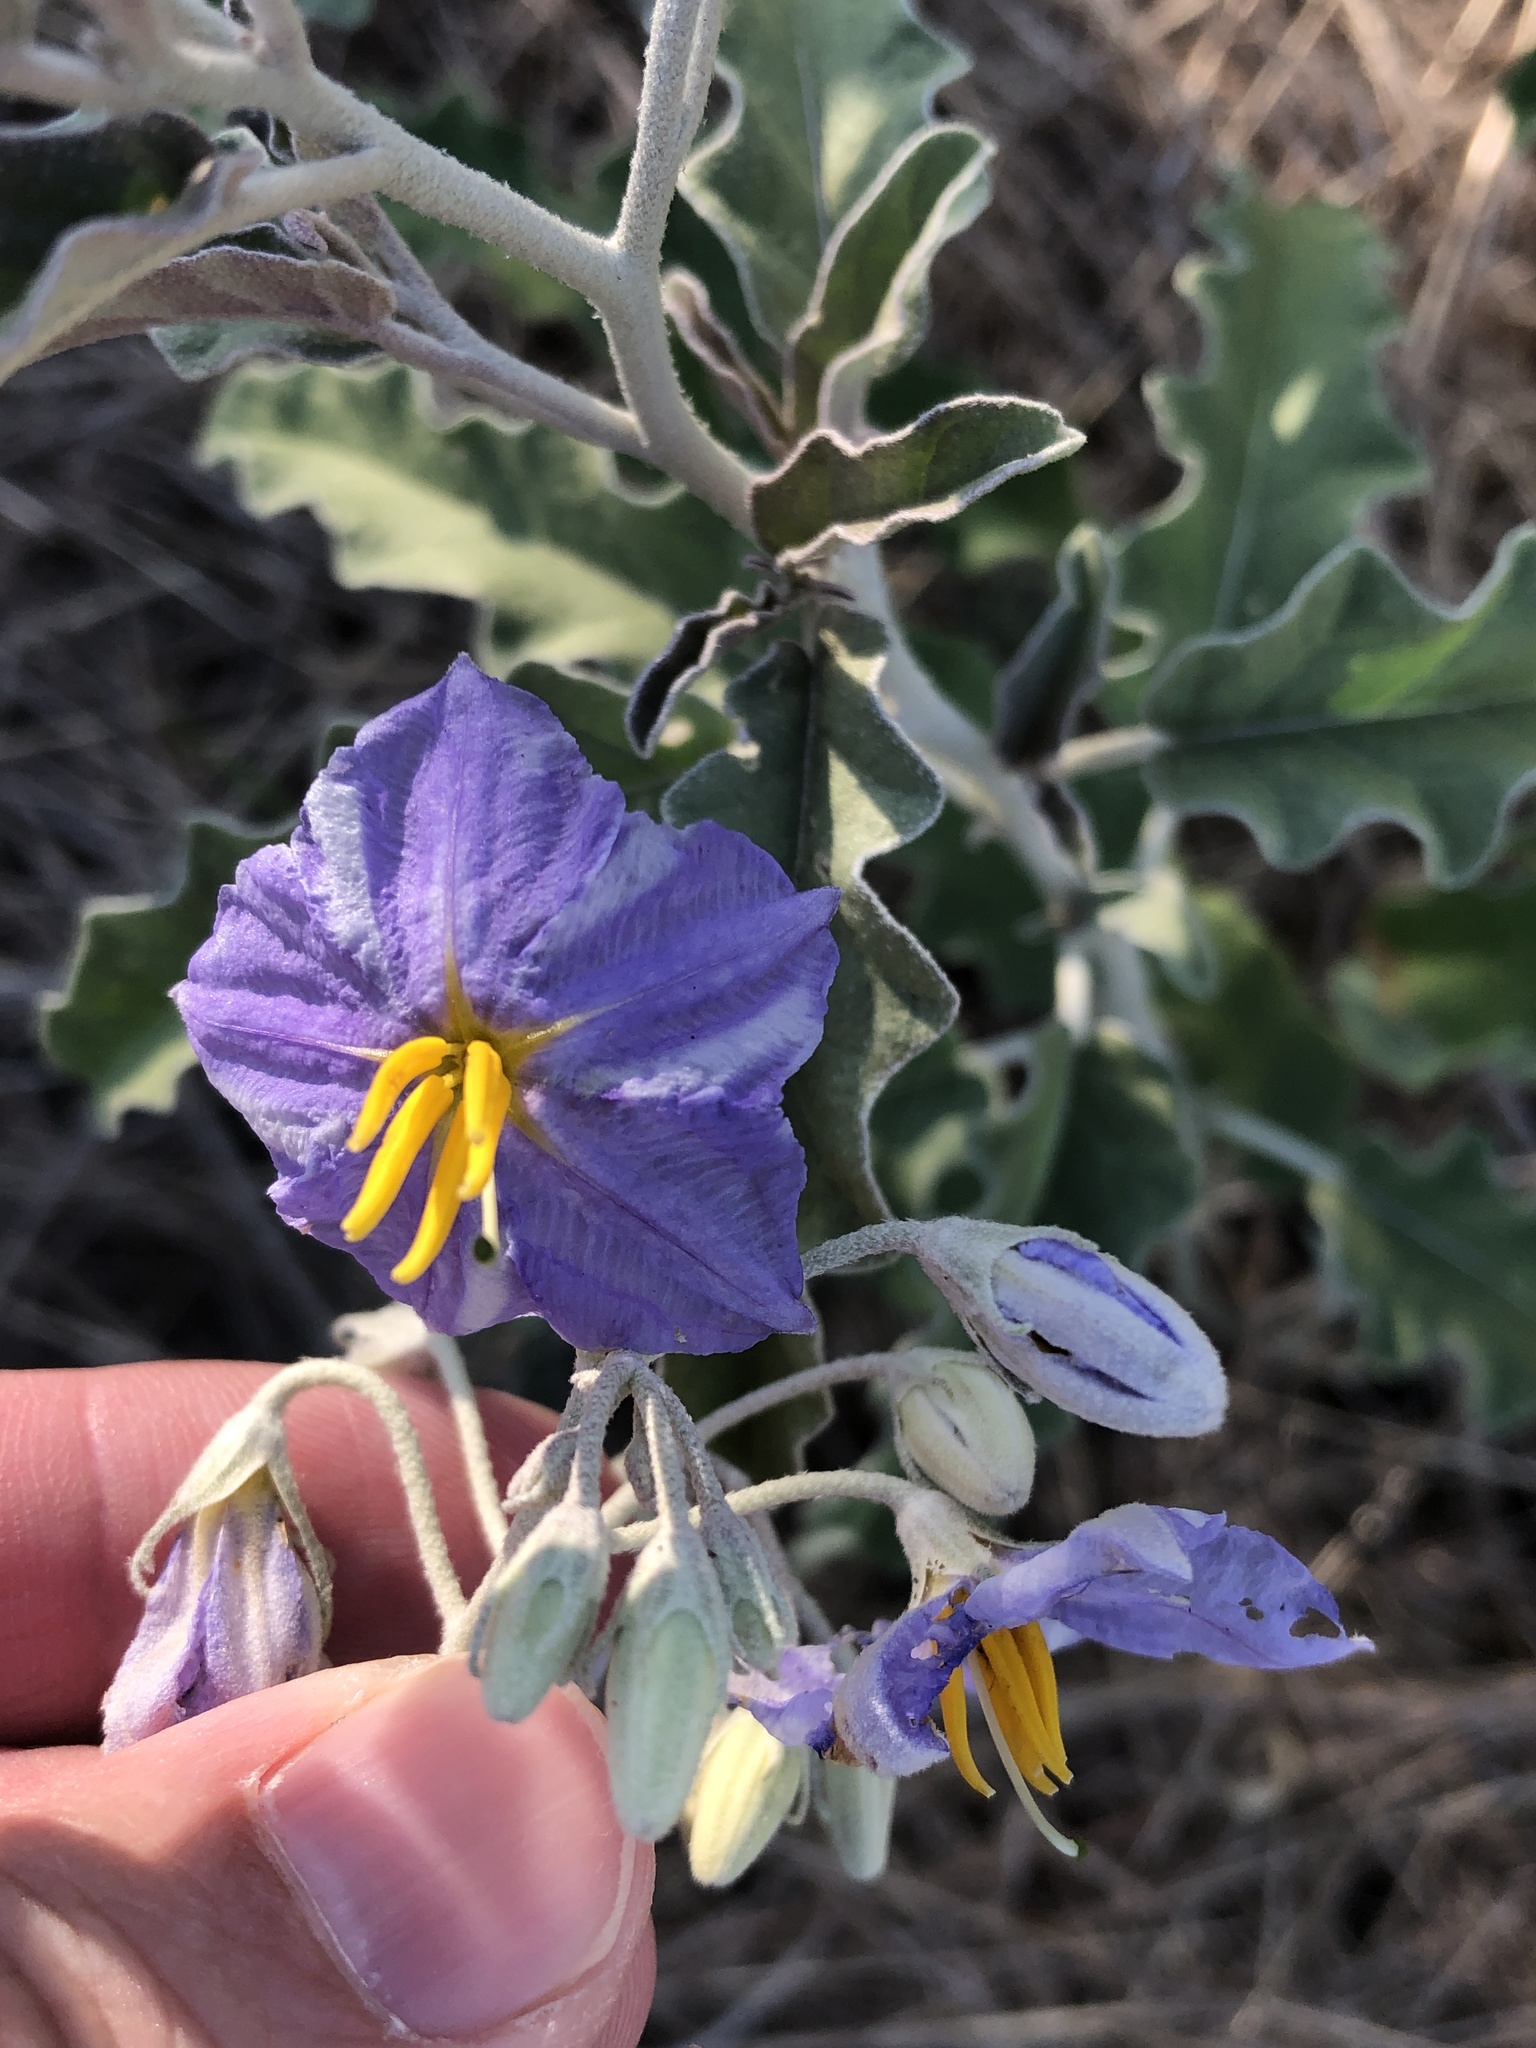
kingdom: Plantae
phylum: Tracheophyta
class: Magnoliopsida
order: Solanales
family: Solanaceae
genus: Solanum
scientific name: Solanum elaeagnifolium
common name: Silverleaf nightshade
